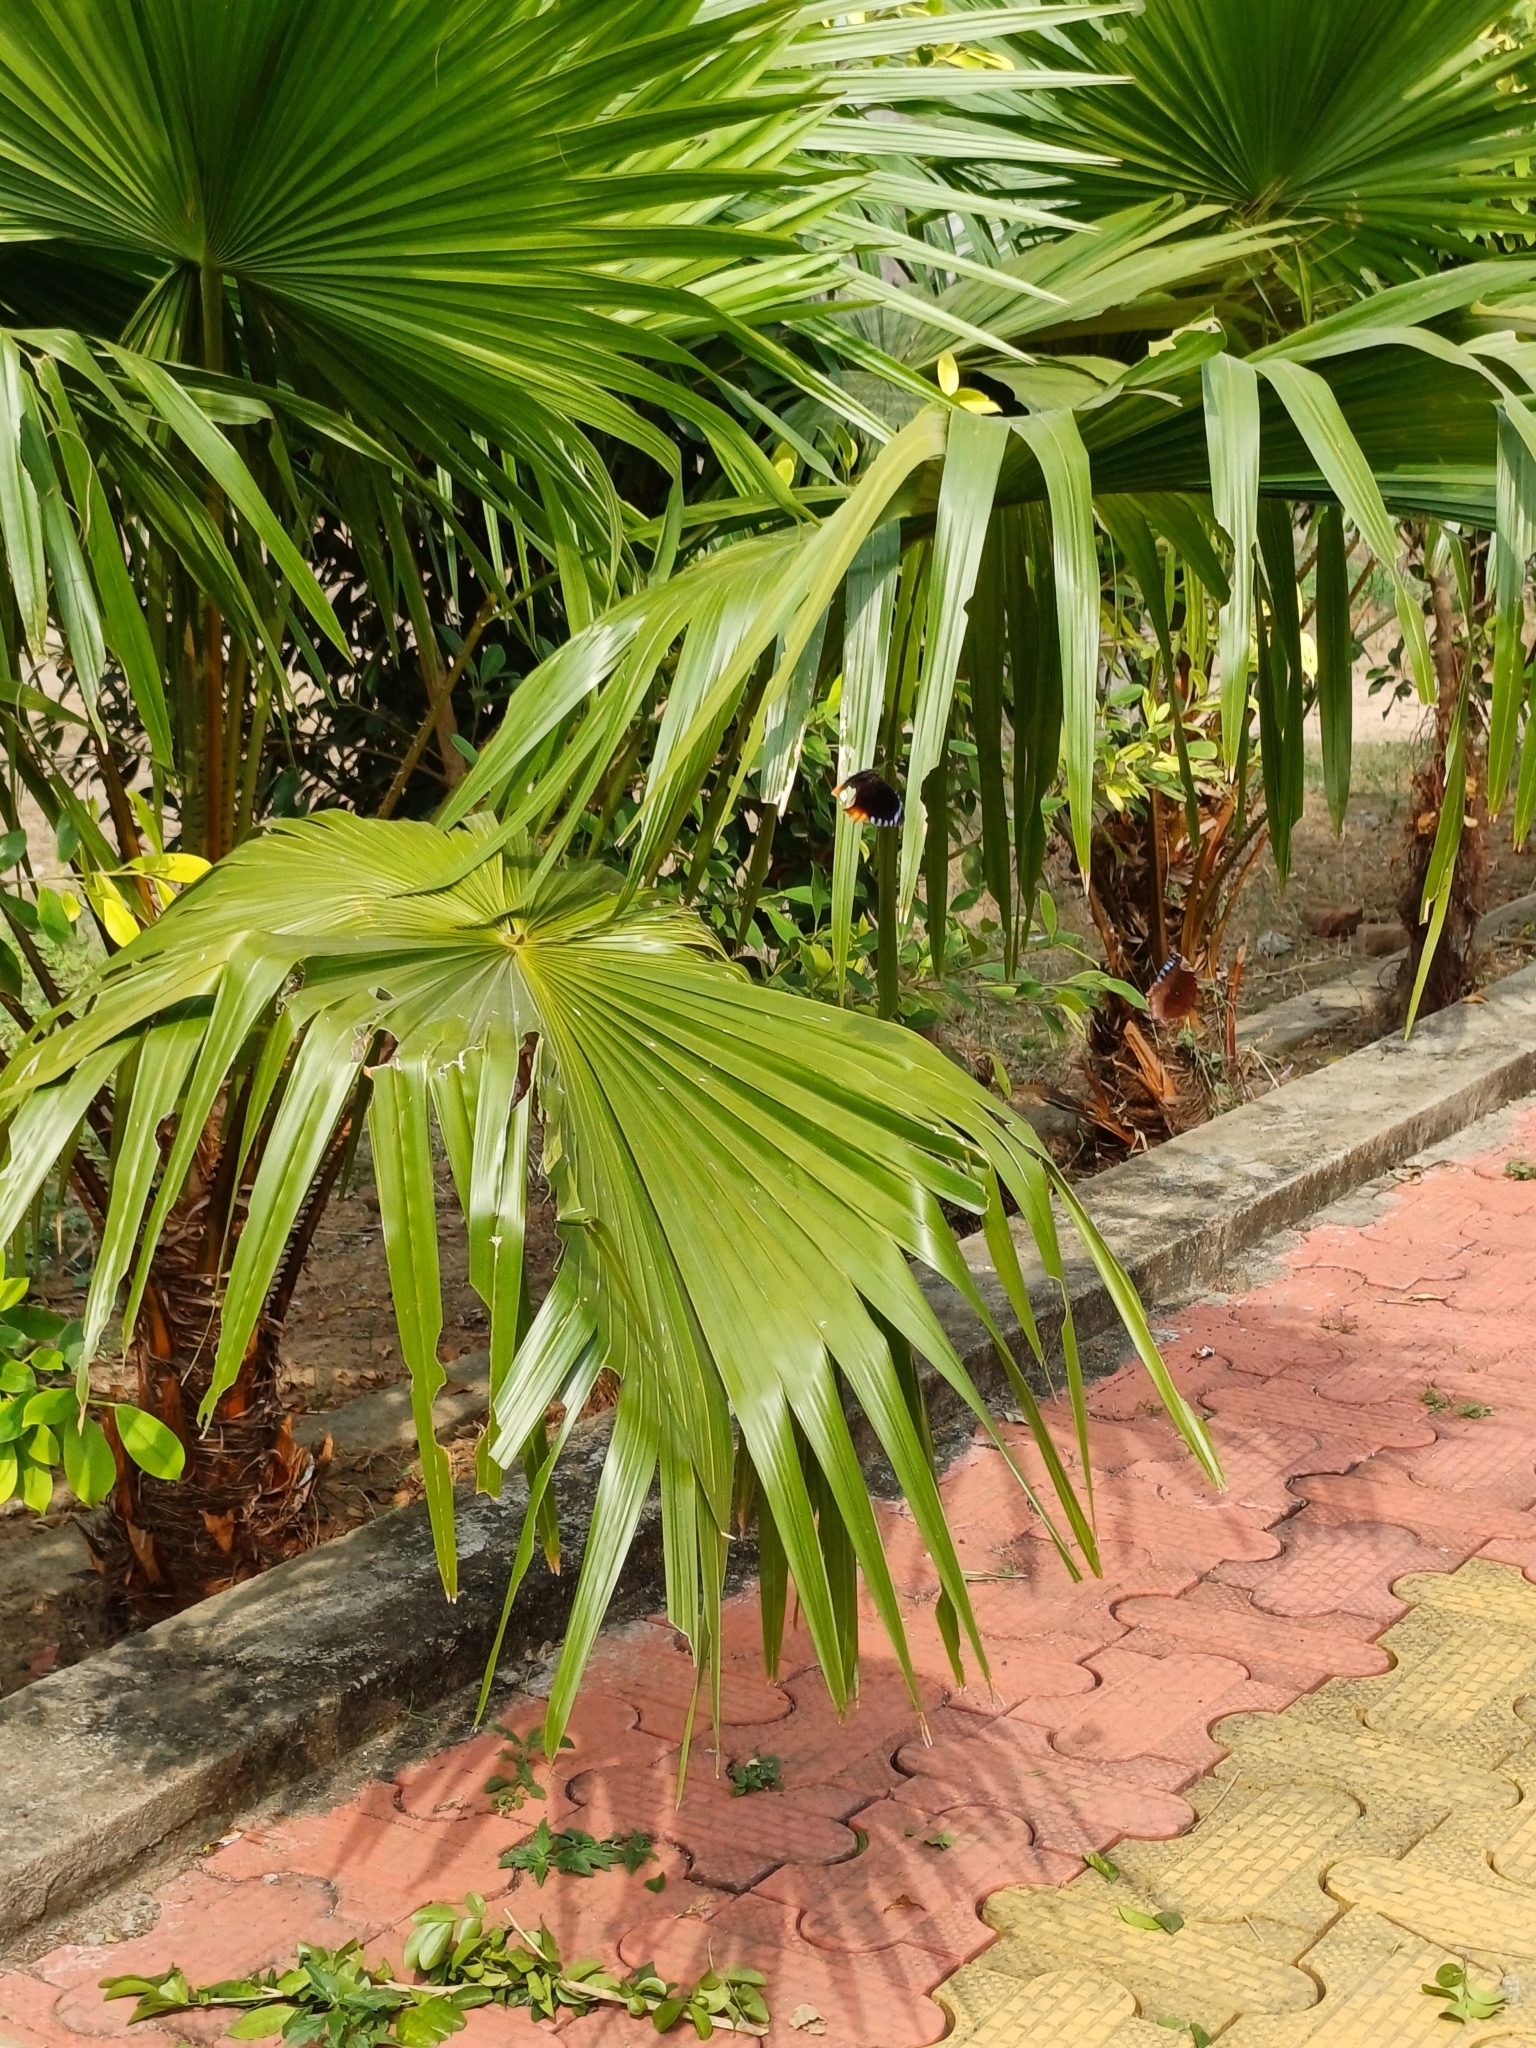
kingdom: Plantae
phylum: Tracheophyta
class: Liliopsida
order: Arecales
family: Arecaceae
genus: Livistona
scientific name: Livistona chinensis
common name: Fountain palm
